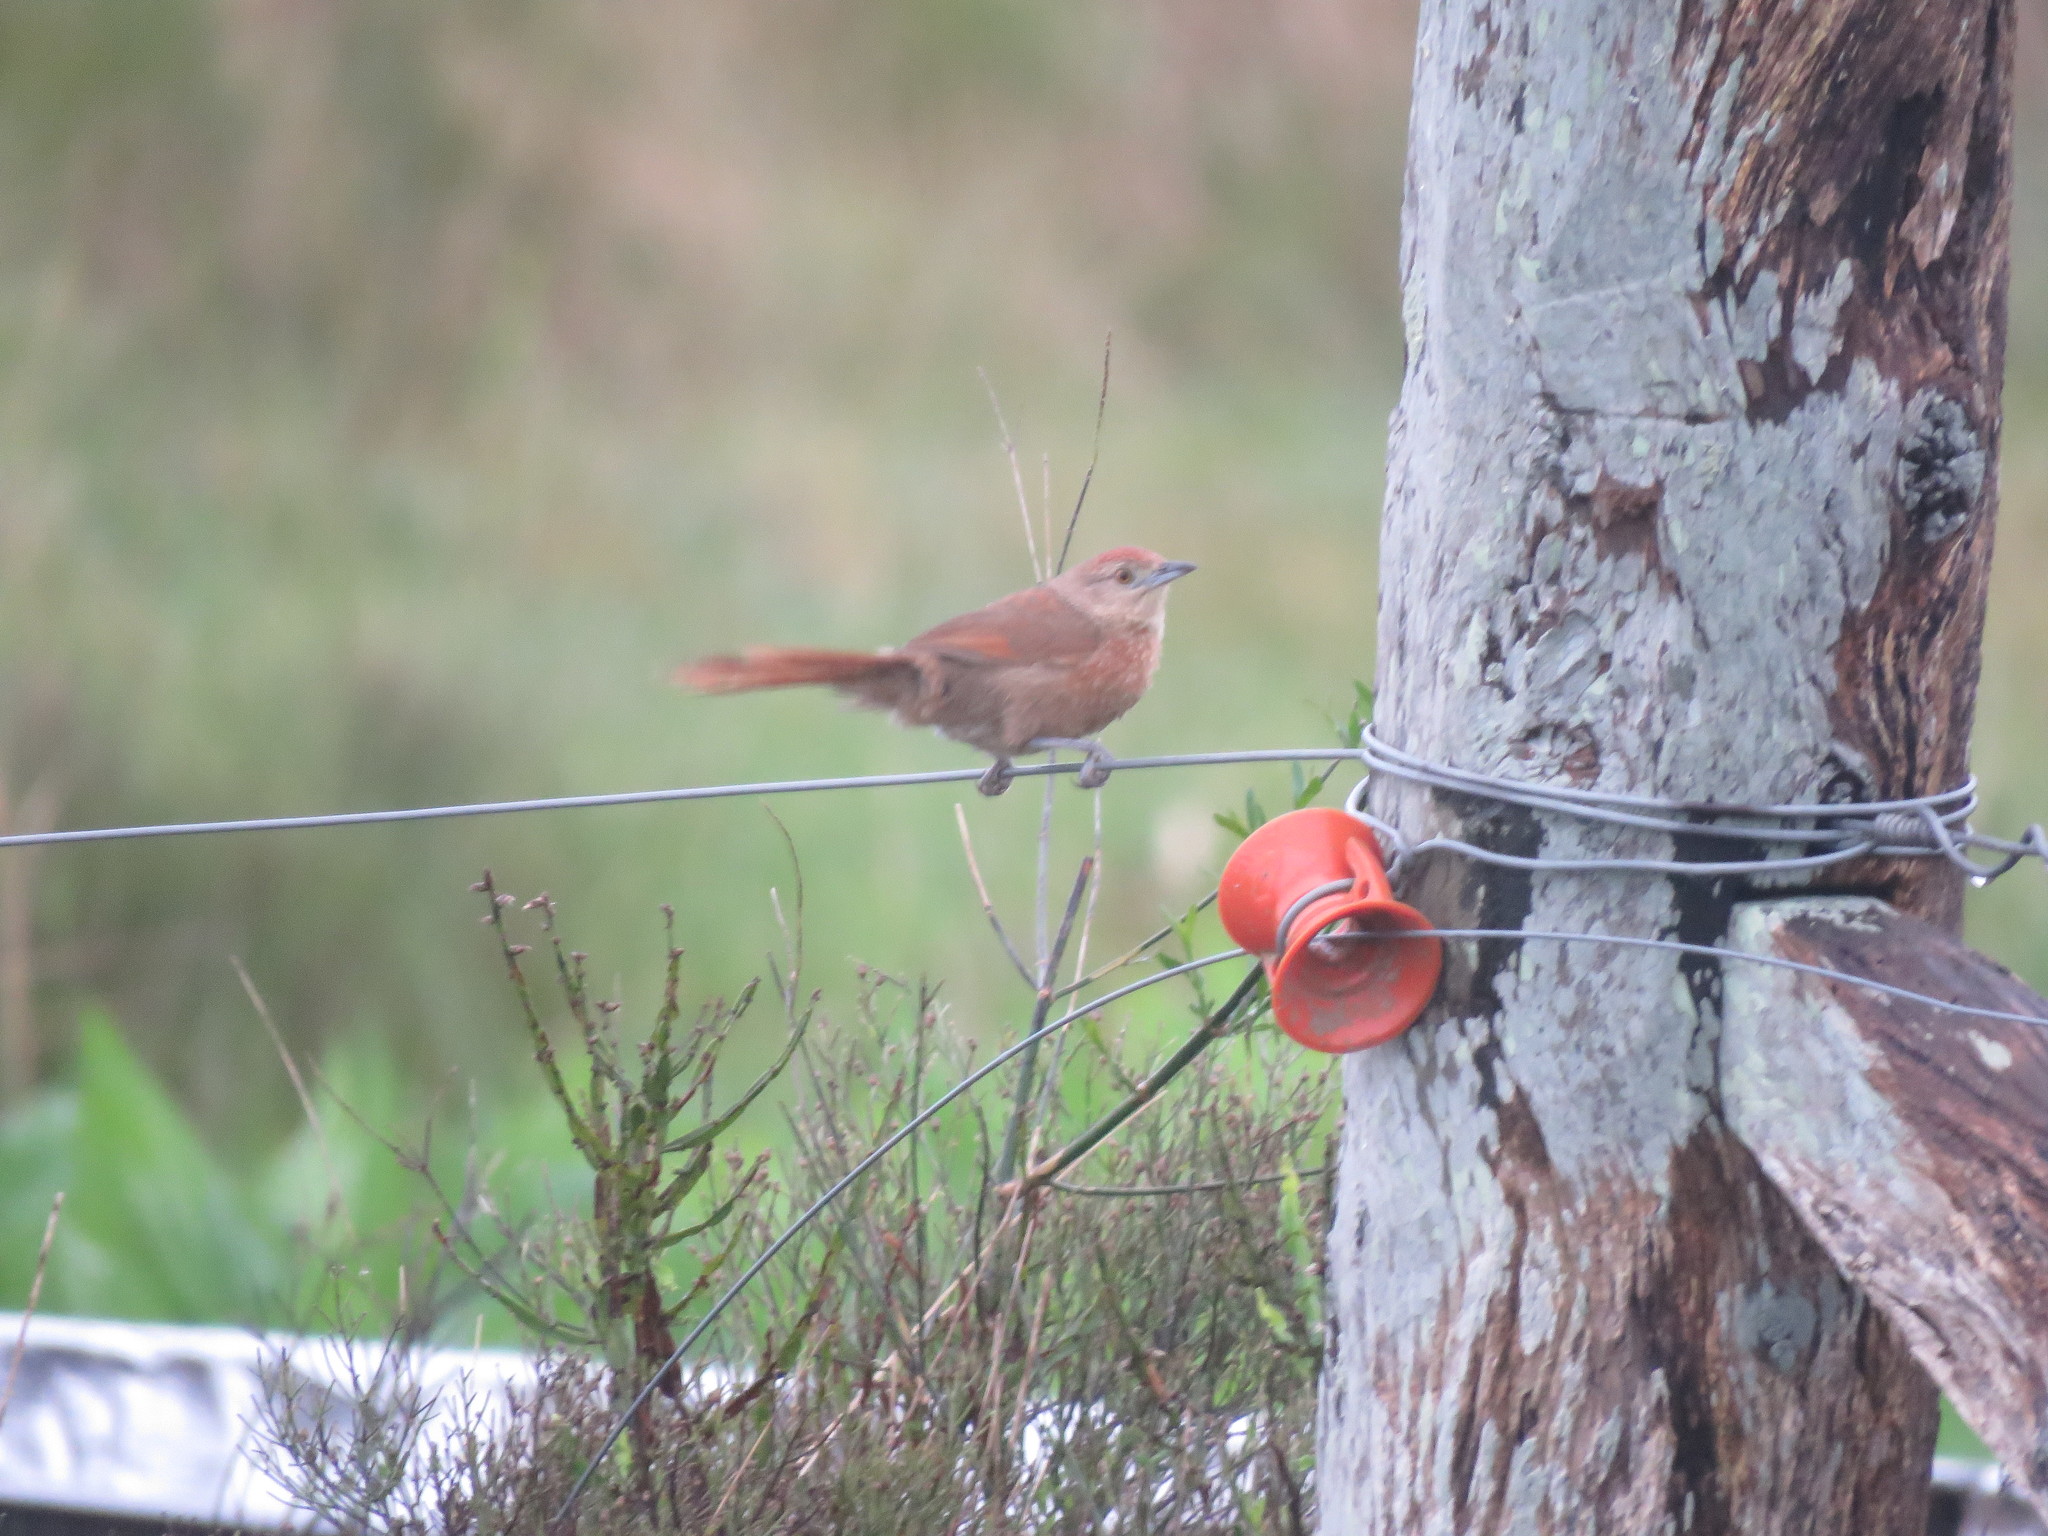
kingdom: Animalia
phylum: Chordata
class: Aves
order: Passeriformes
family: Furnariidae
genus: Phacellodomus
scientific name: Phacellodomus striaticollis
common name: Freckle-breasted thornbird
